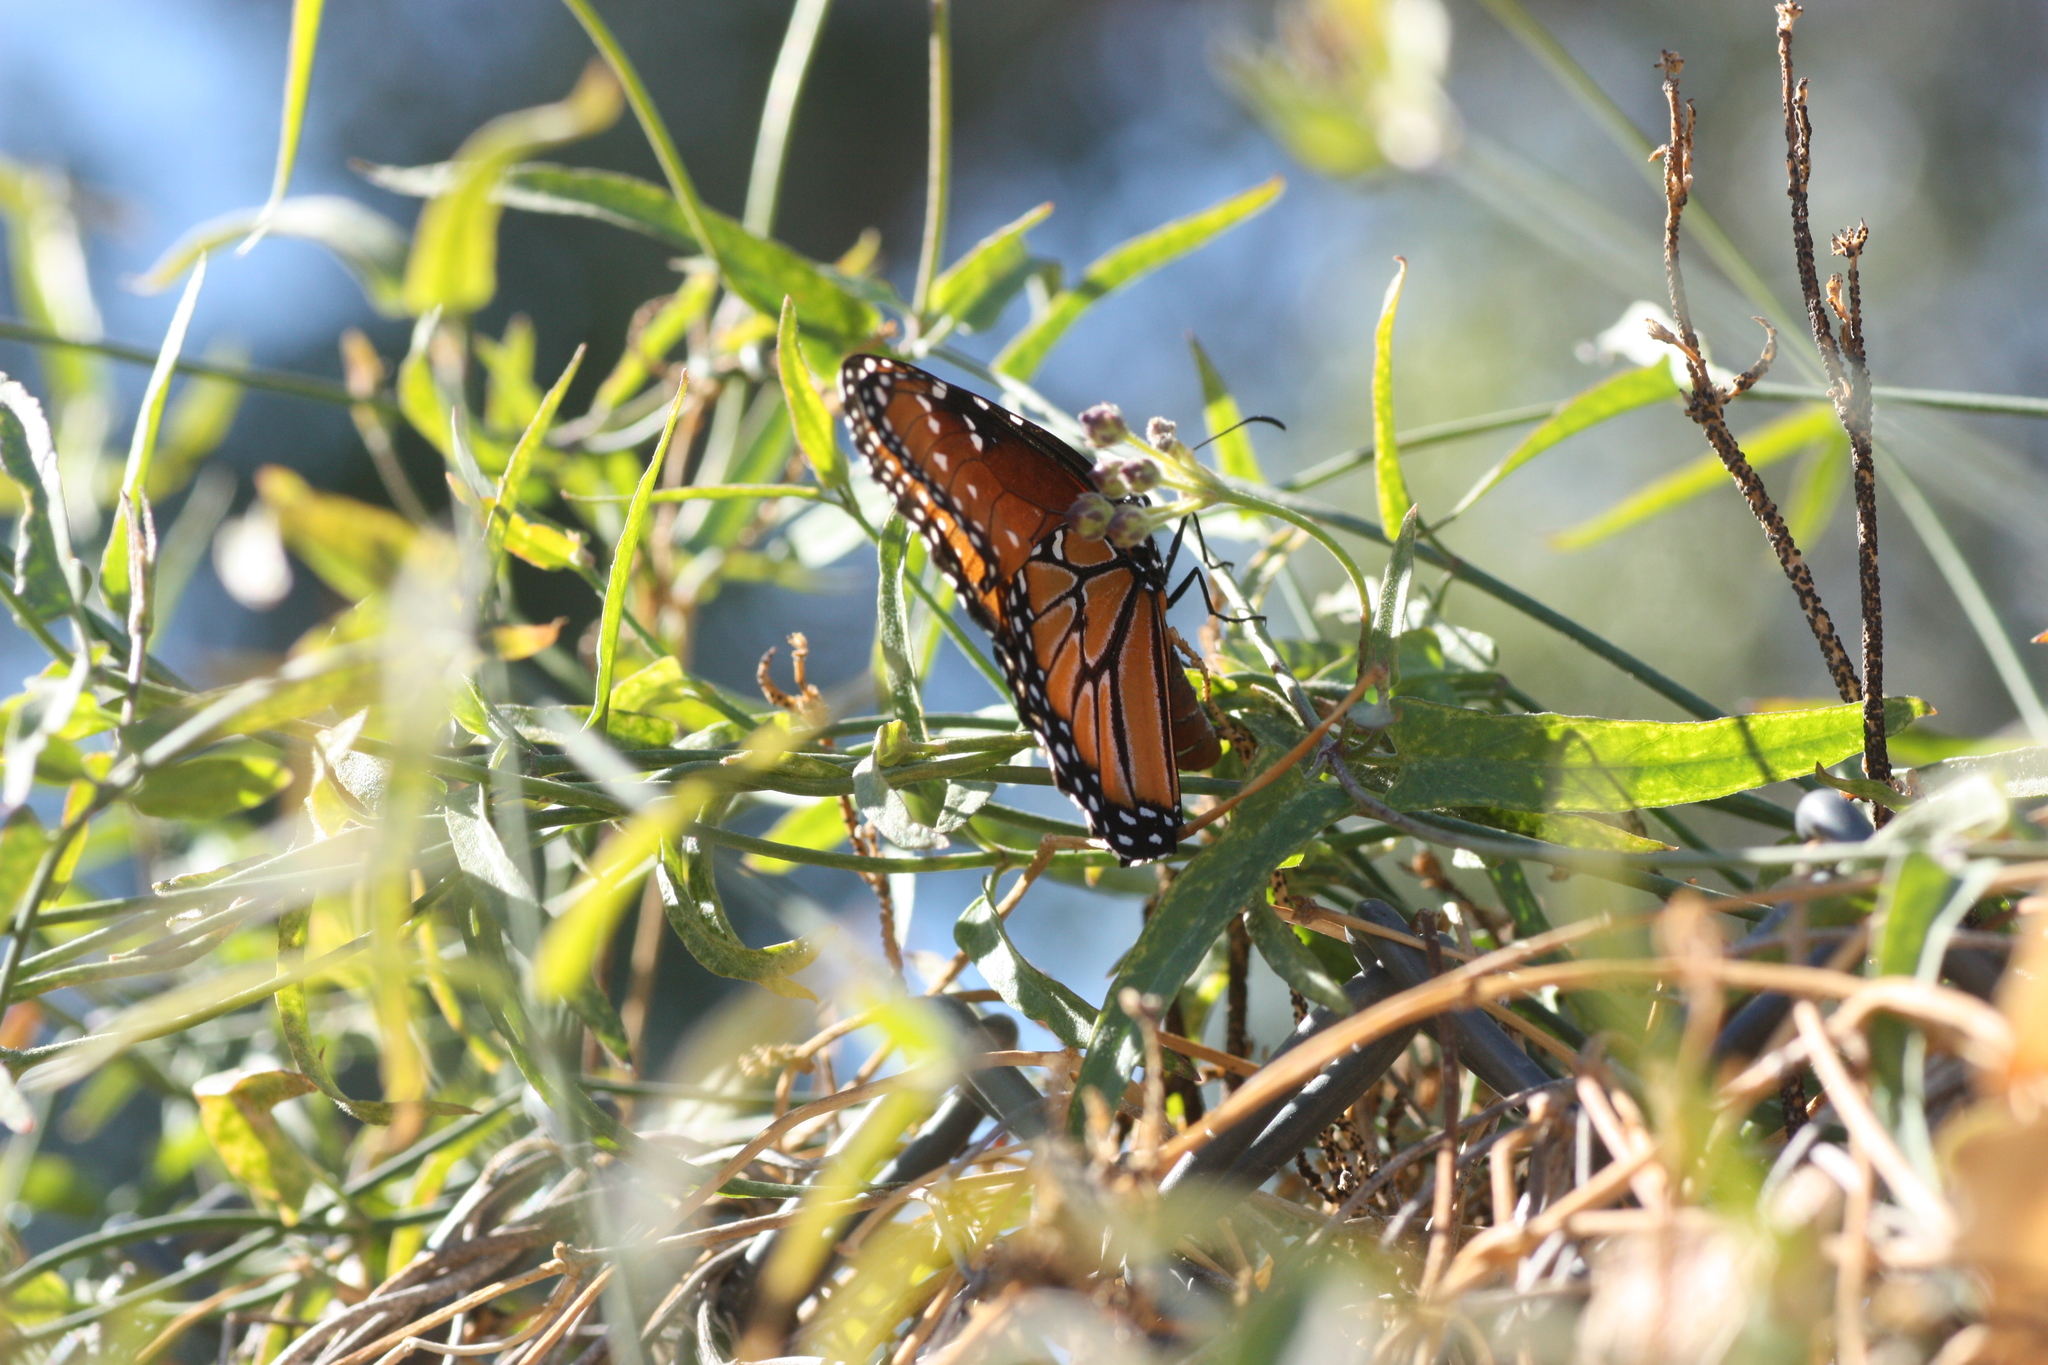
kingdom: Animalia
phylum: Arthropoda
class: Insecta
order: Lepidoptera
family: Nymphalidae
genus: Danaus
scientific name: Danaus gilippus
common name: Queen
